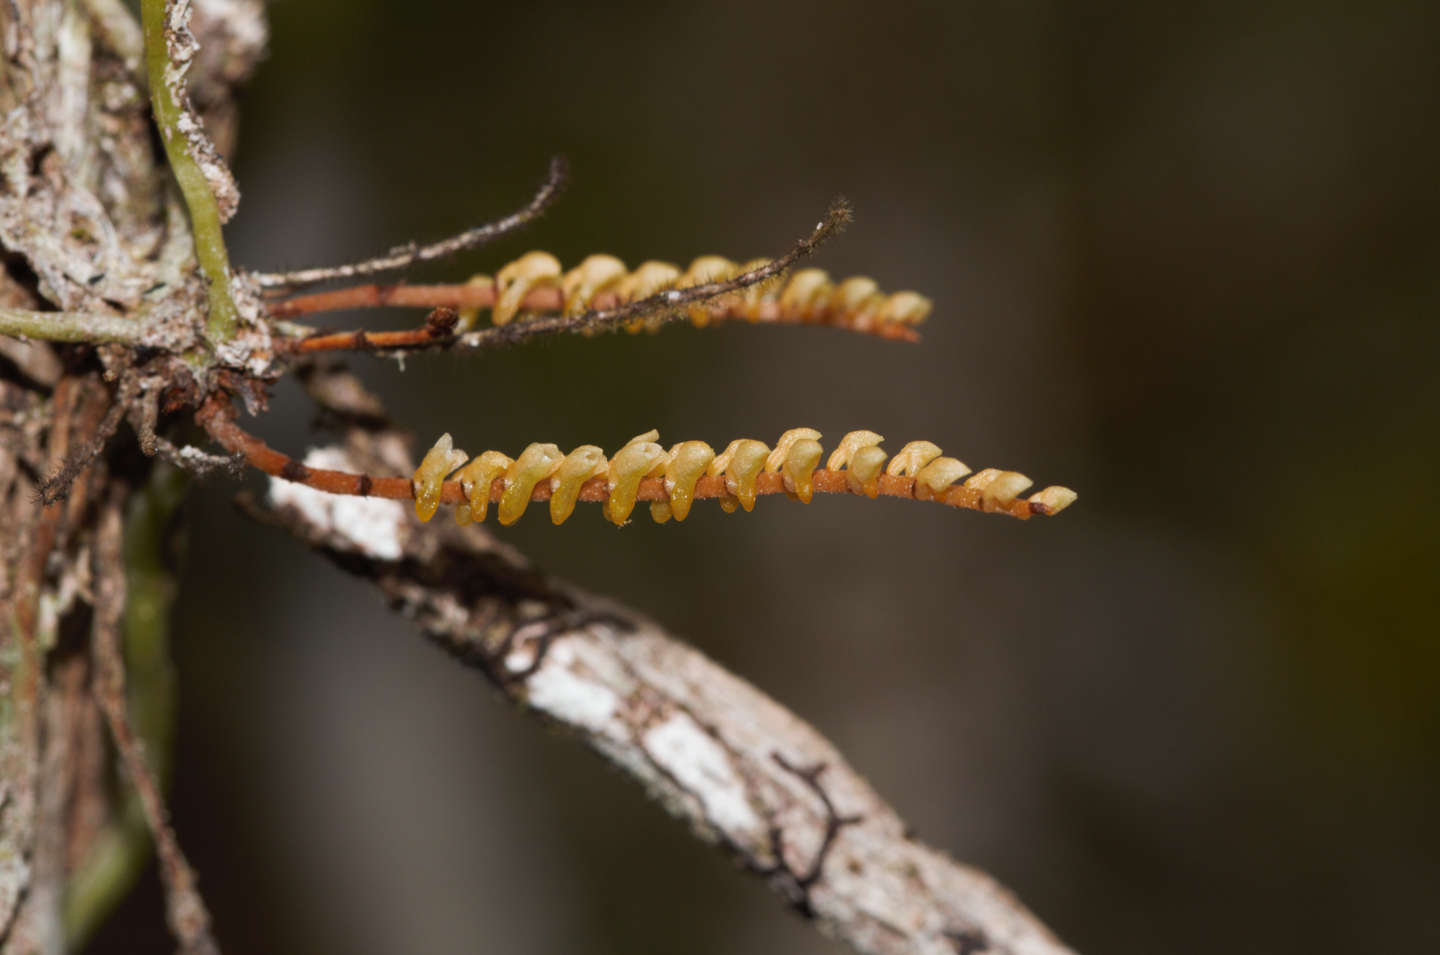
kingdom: Plantae
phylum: Tracheophyta
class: Liliopsida
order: Asparagales
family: Orchidaceae
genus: Campylocentrum
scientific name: Campylocentrum fasciola
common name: Arboreal bentspur orchid
